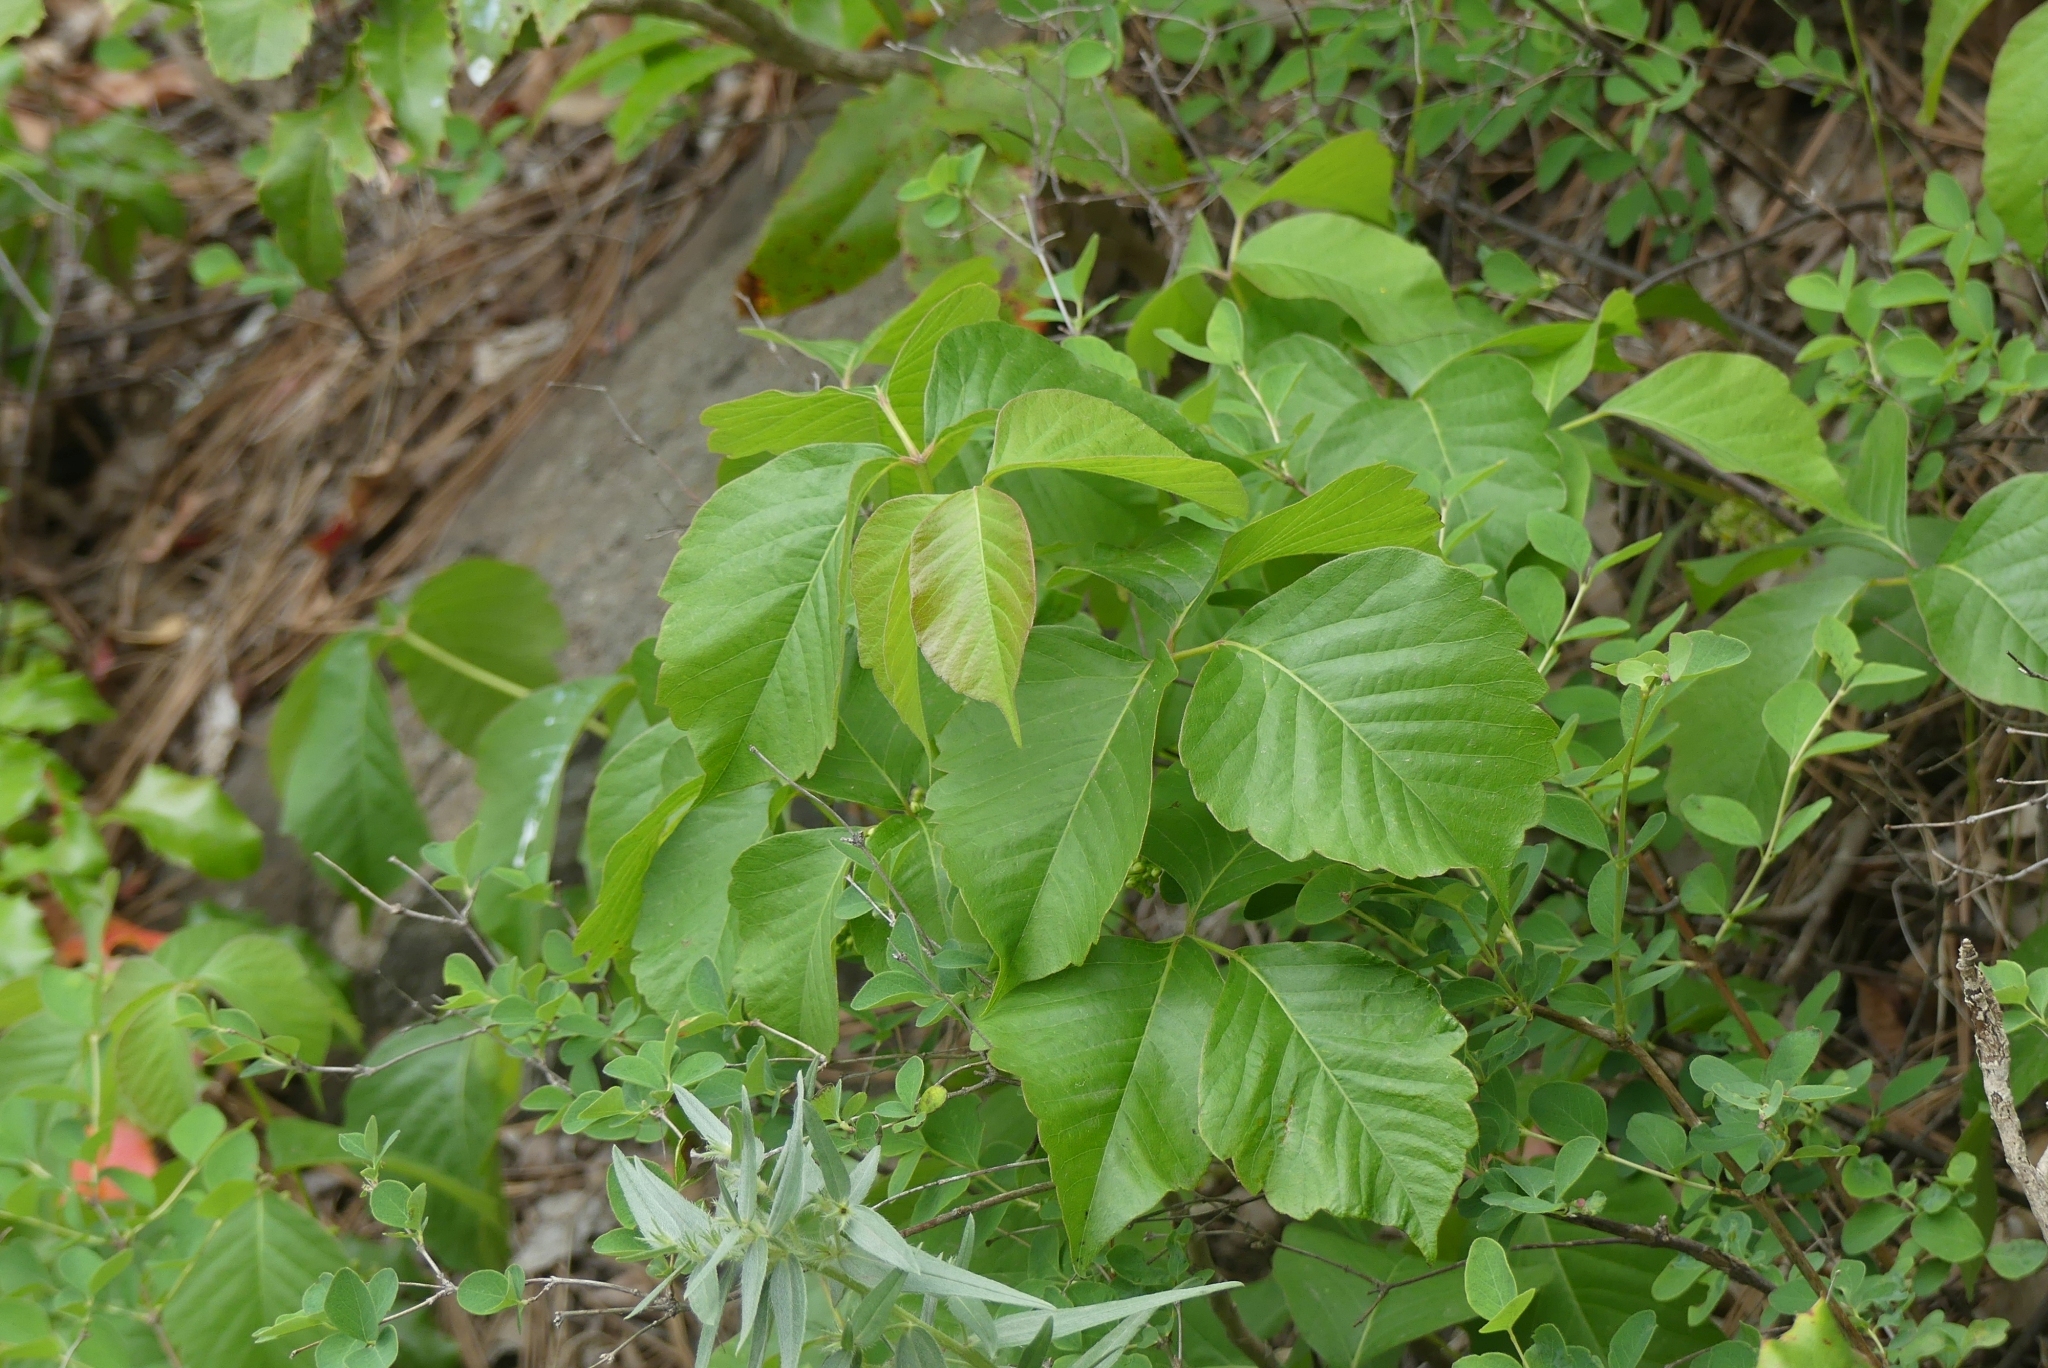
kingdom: Plantae
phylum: Tracheophyta
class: Magnoliopsida
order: Sapindales
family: Anacardiaceae
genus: Toxicodendron
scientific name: Toxicodendron rydbergii
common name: Rydberg's poison-ivy
